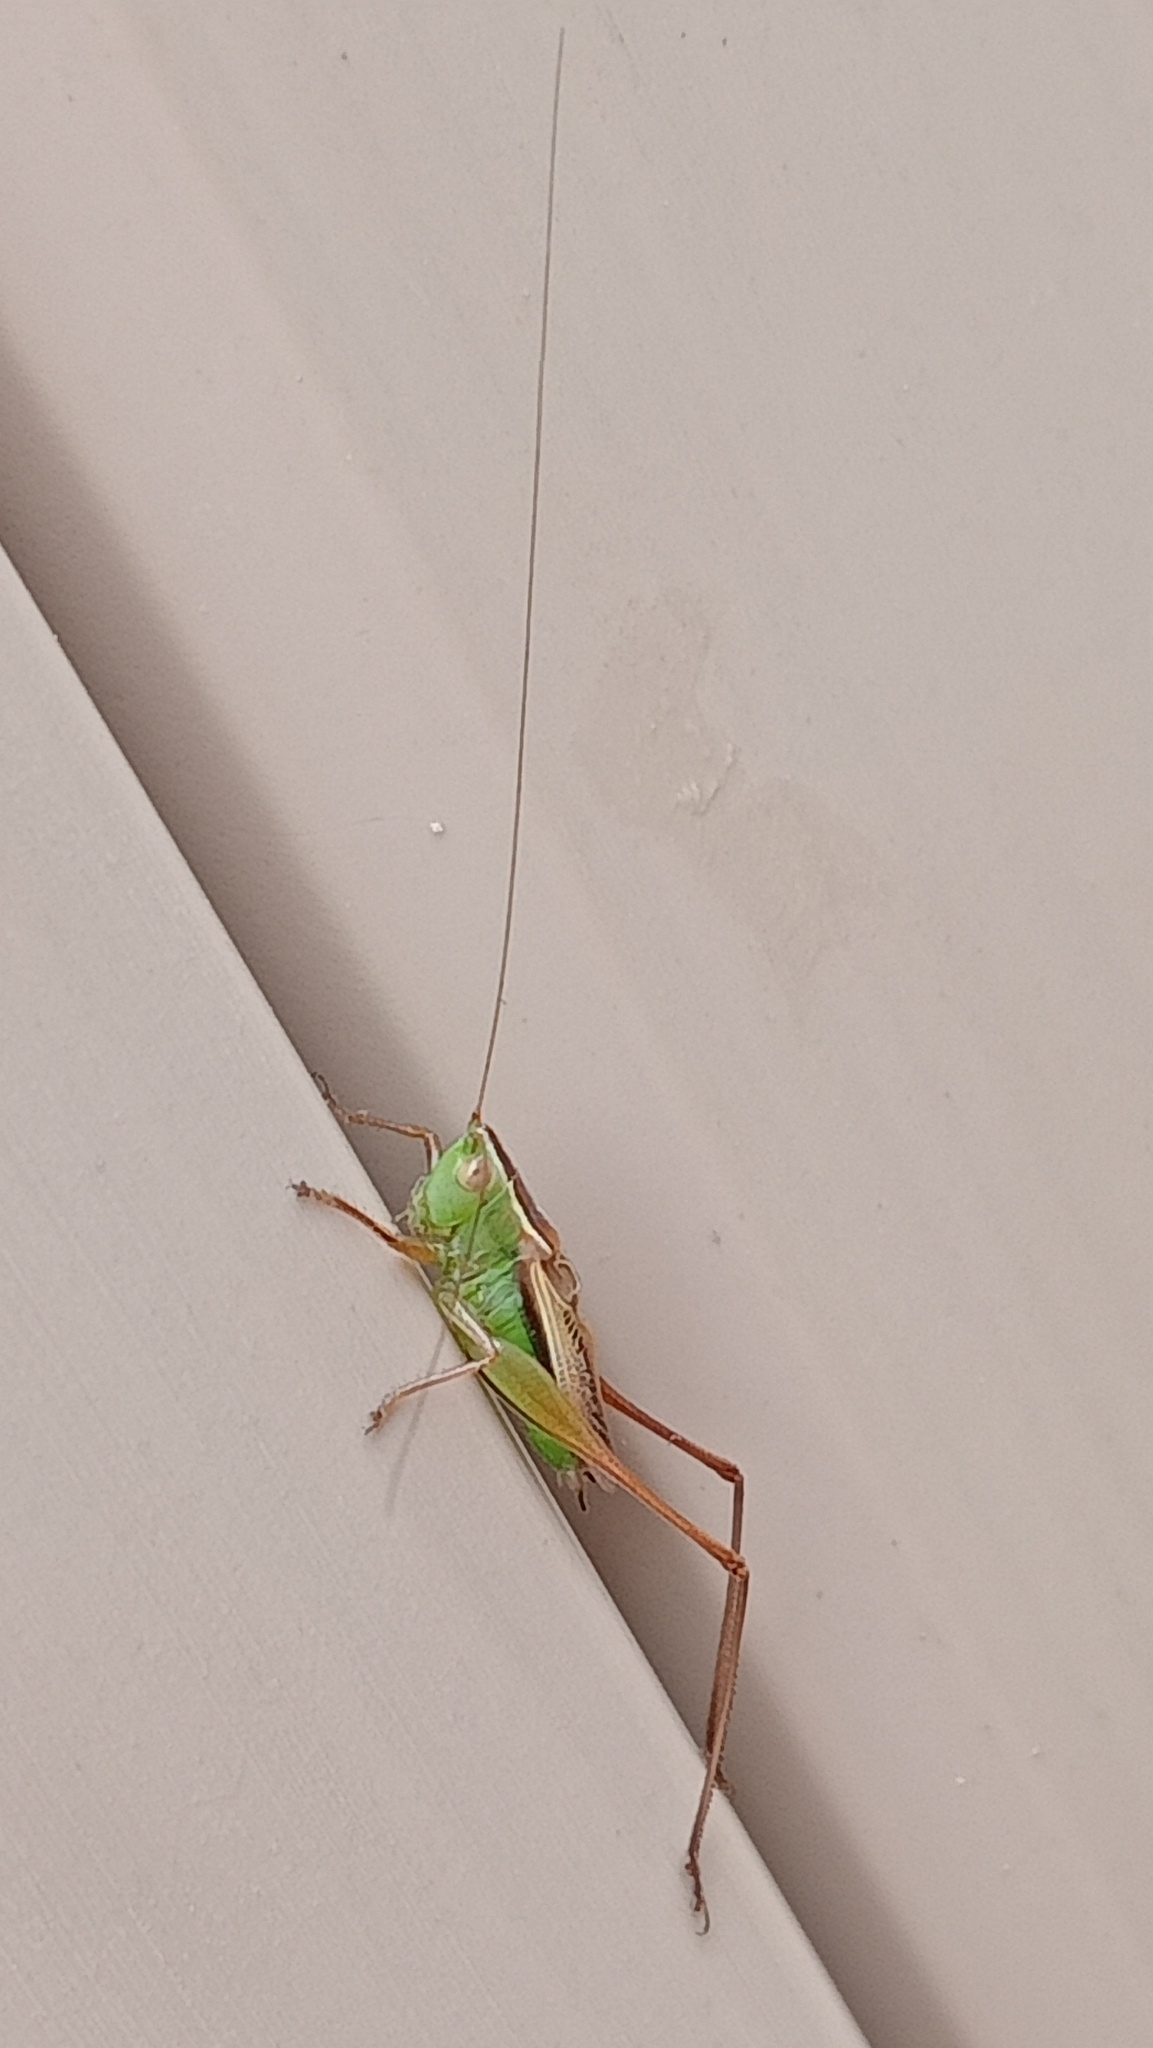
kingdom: Animalia
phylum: Arthropoda
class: Insecta
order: Orthoptera
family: Tettigoniidae
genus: Conocephalus
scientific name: Conocephalus albescens
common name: Whitish meadow katydid
